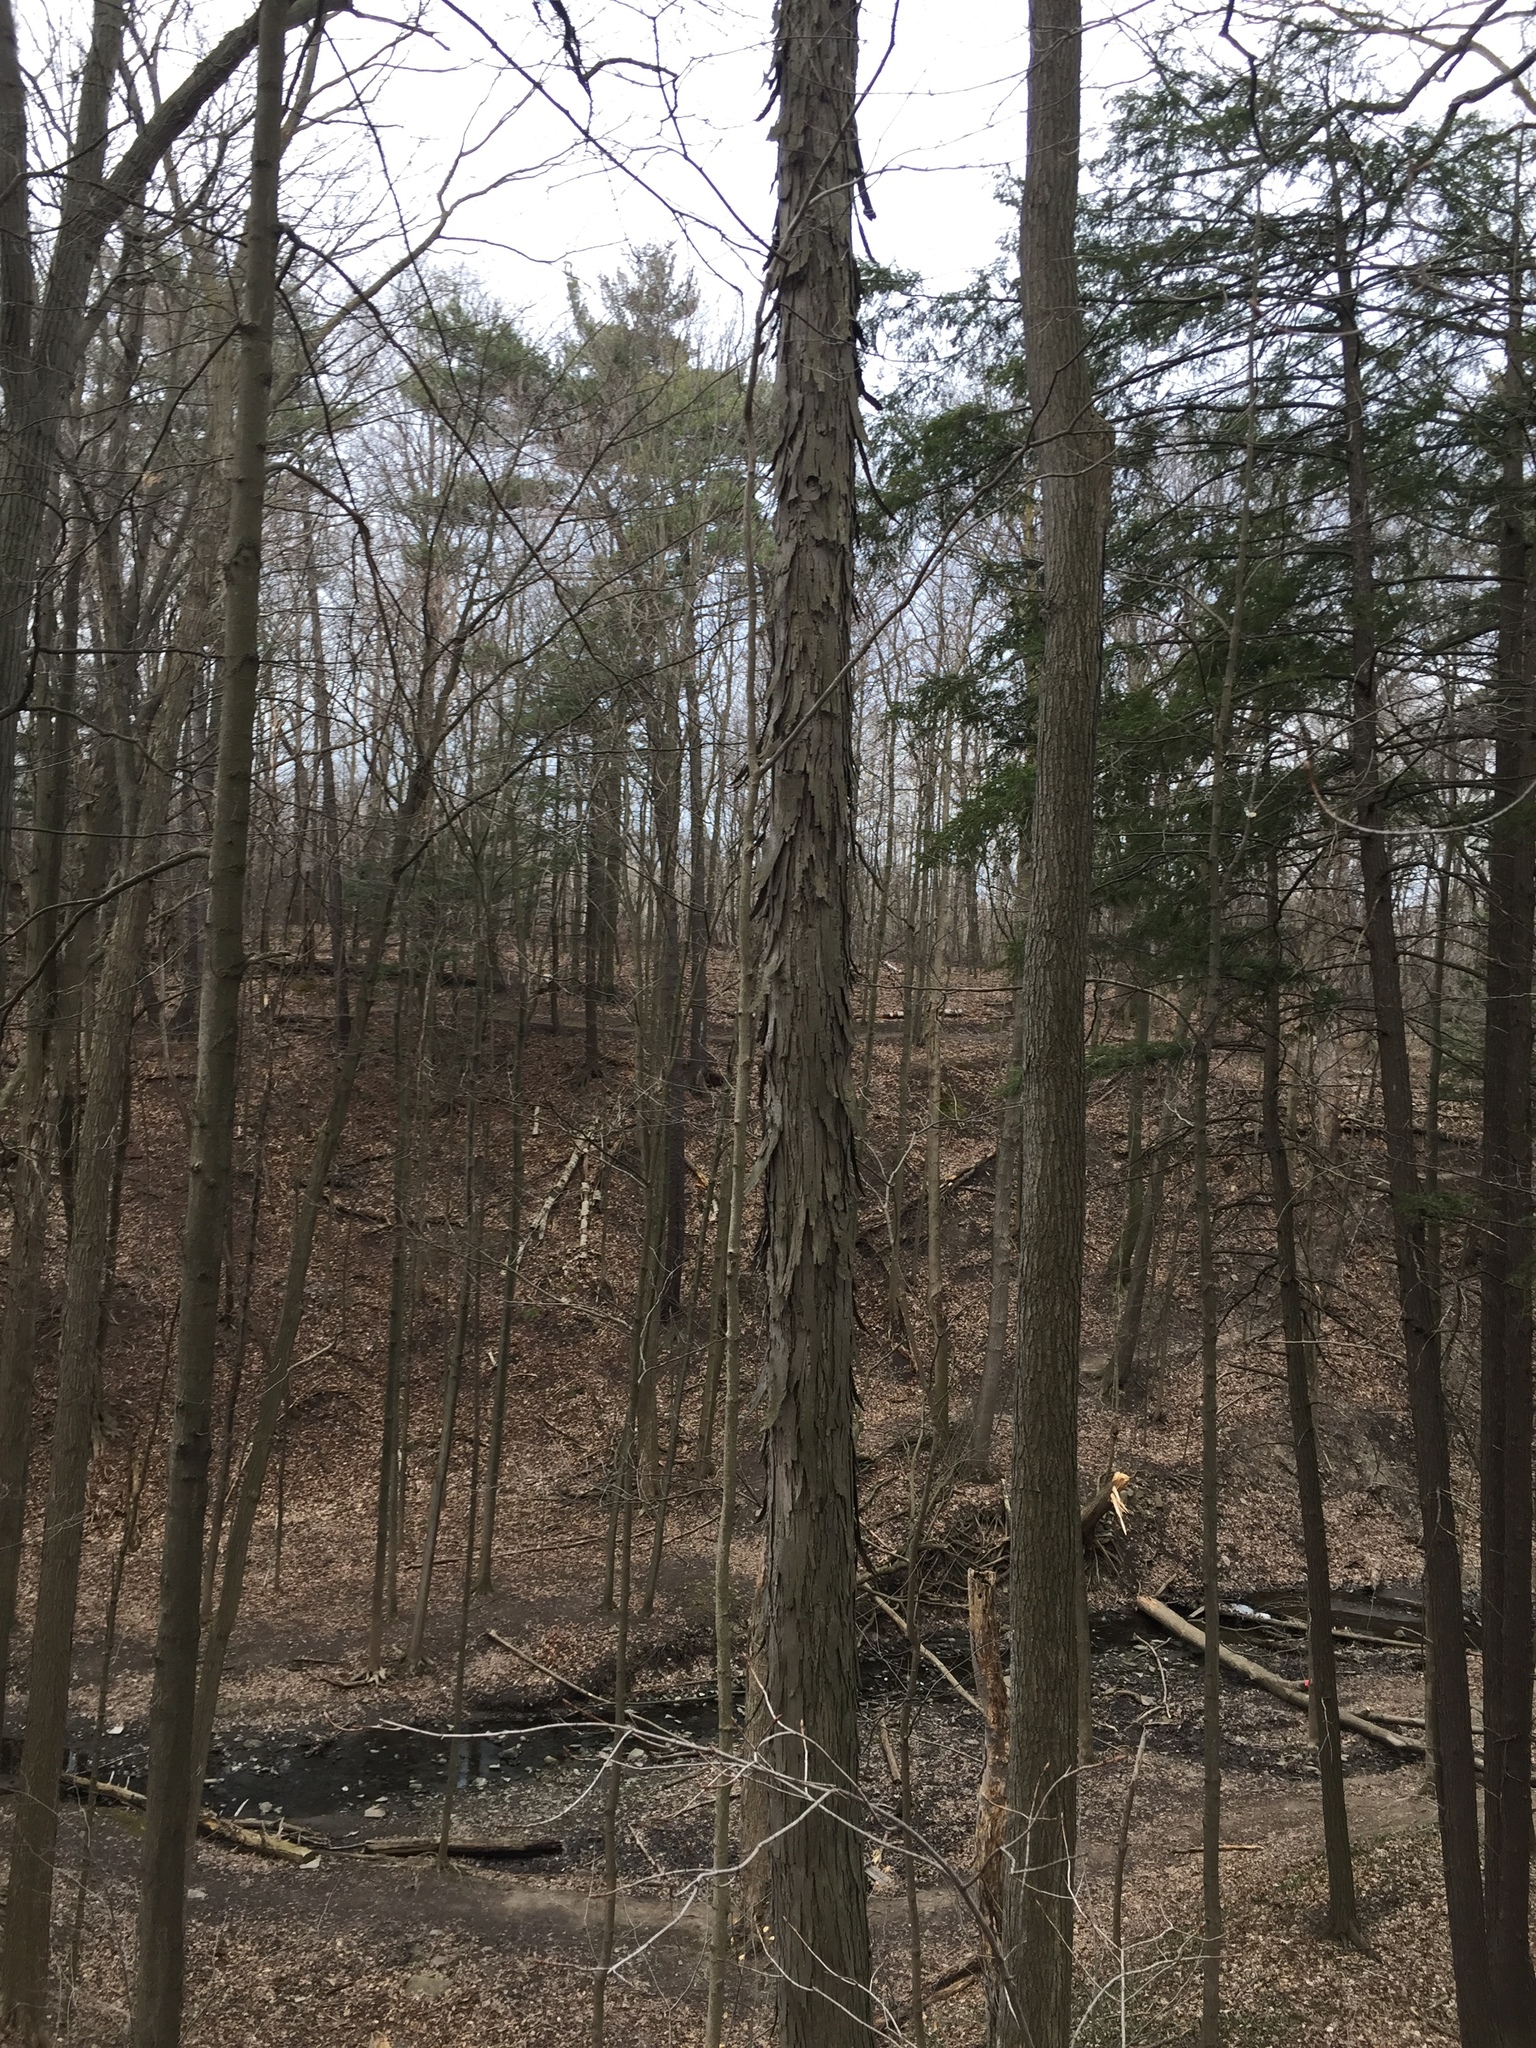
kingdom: Plantae
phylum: Tracheophyta
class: Magnoliopsida
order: Fagales
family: Juglandaceae
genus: Carya
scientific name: Carya ovata
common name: Shagbark hickory
